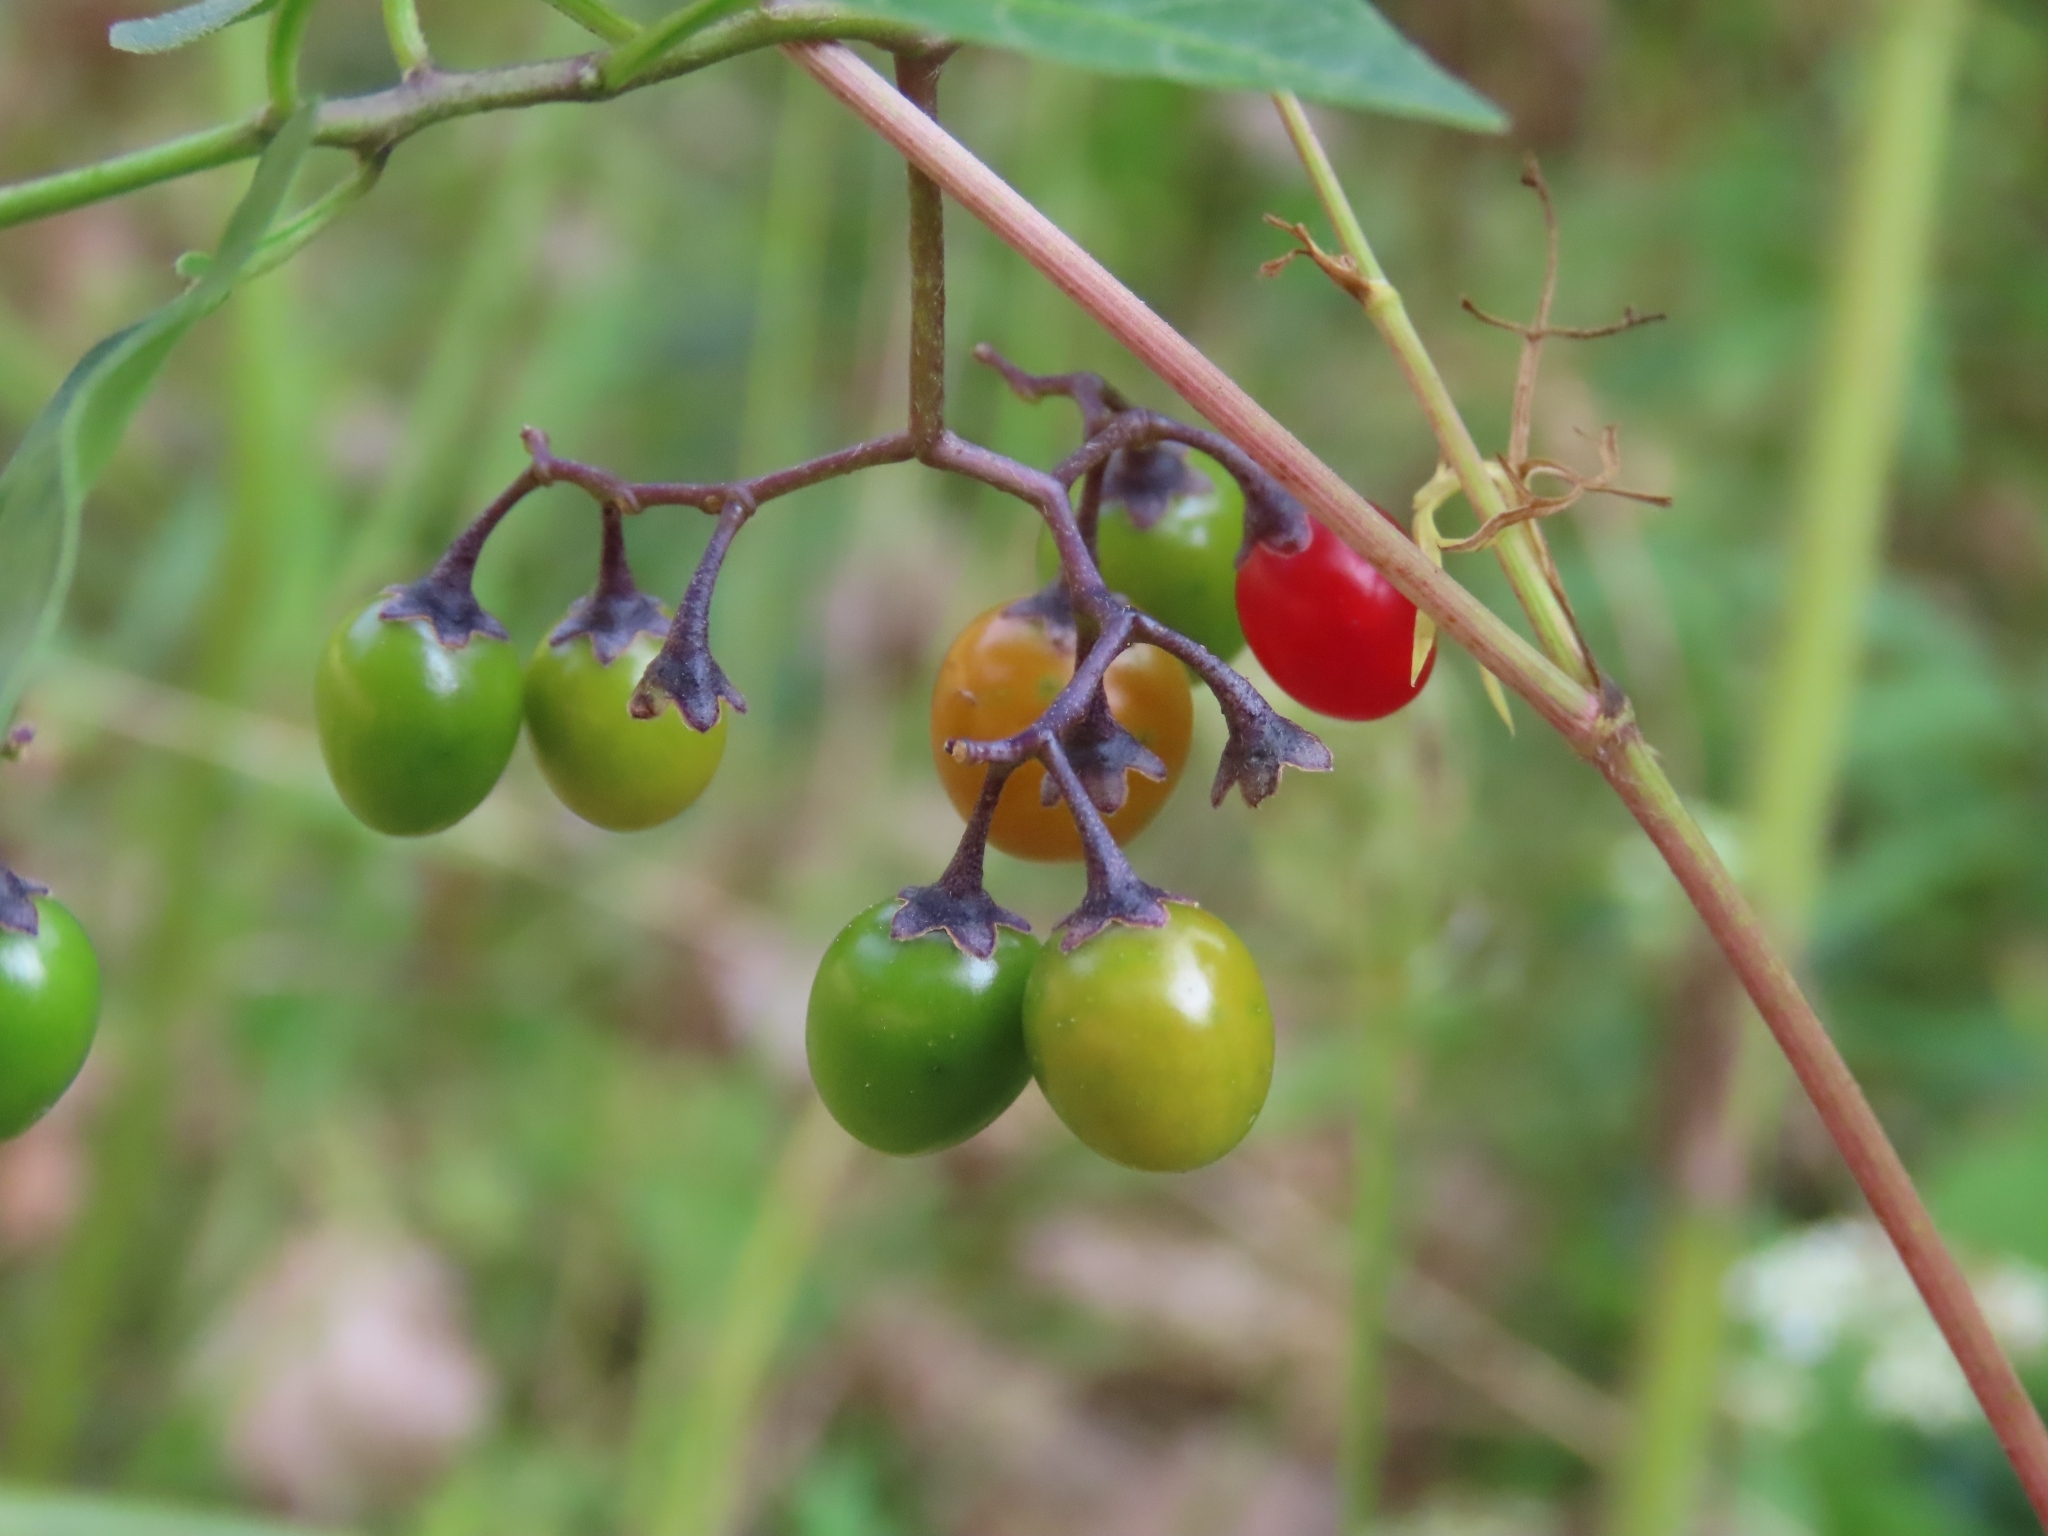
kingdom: Plantae
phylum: Tracheophyta
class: Magnoliopsida
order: Solanales
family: Solanaceae
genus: Solanum
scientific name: Solanum dulcamara
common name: Climbing nightshade
